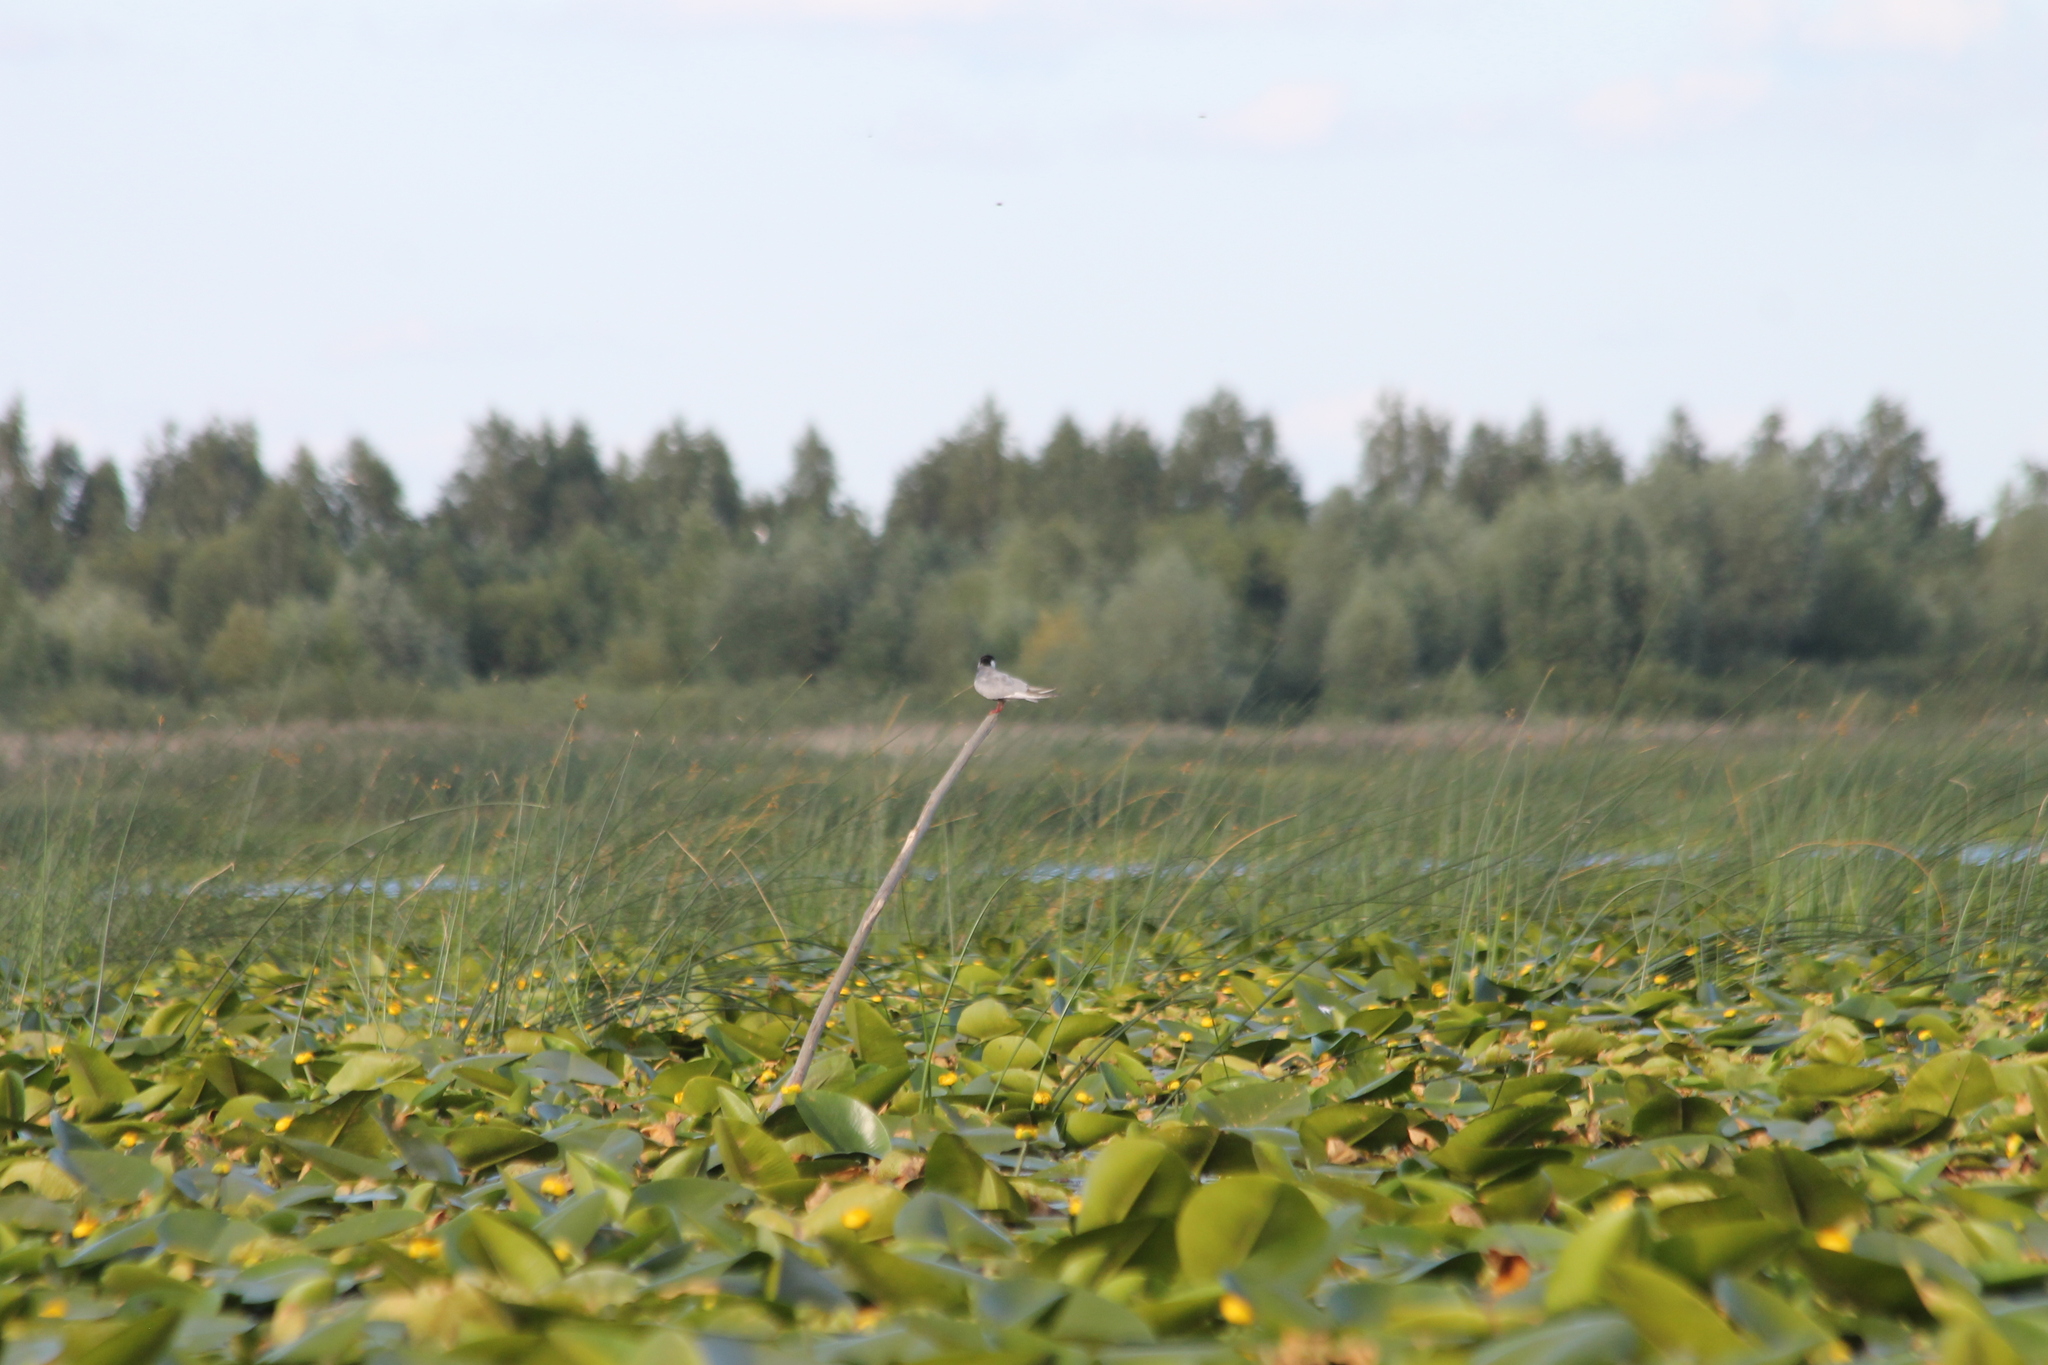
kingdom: Animalia
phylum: Chordata
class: Aves
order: Charadriiformes
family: Laridae
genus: Chlidonias
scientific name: Chlidonias hybrida
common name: Whiskered tern
